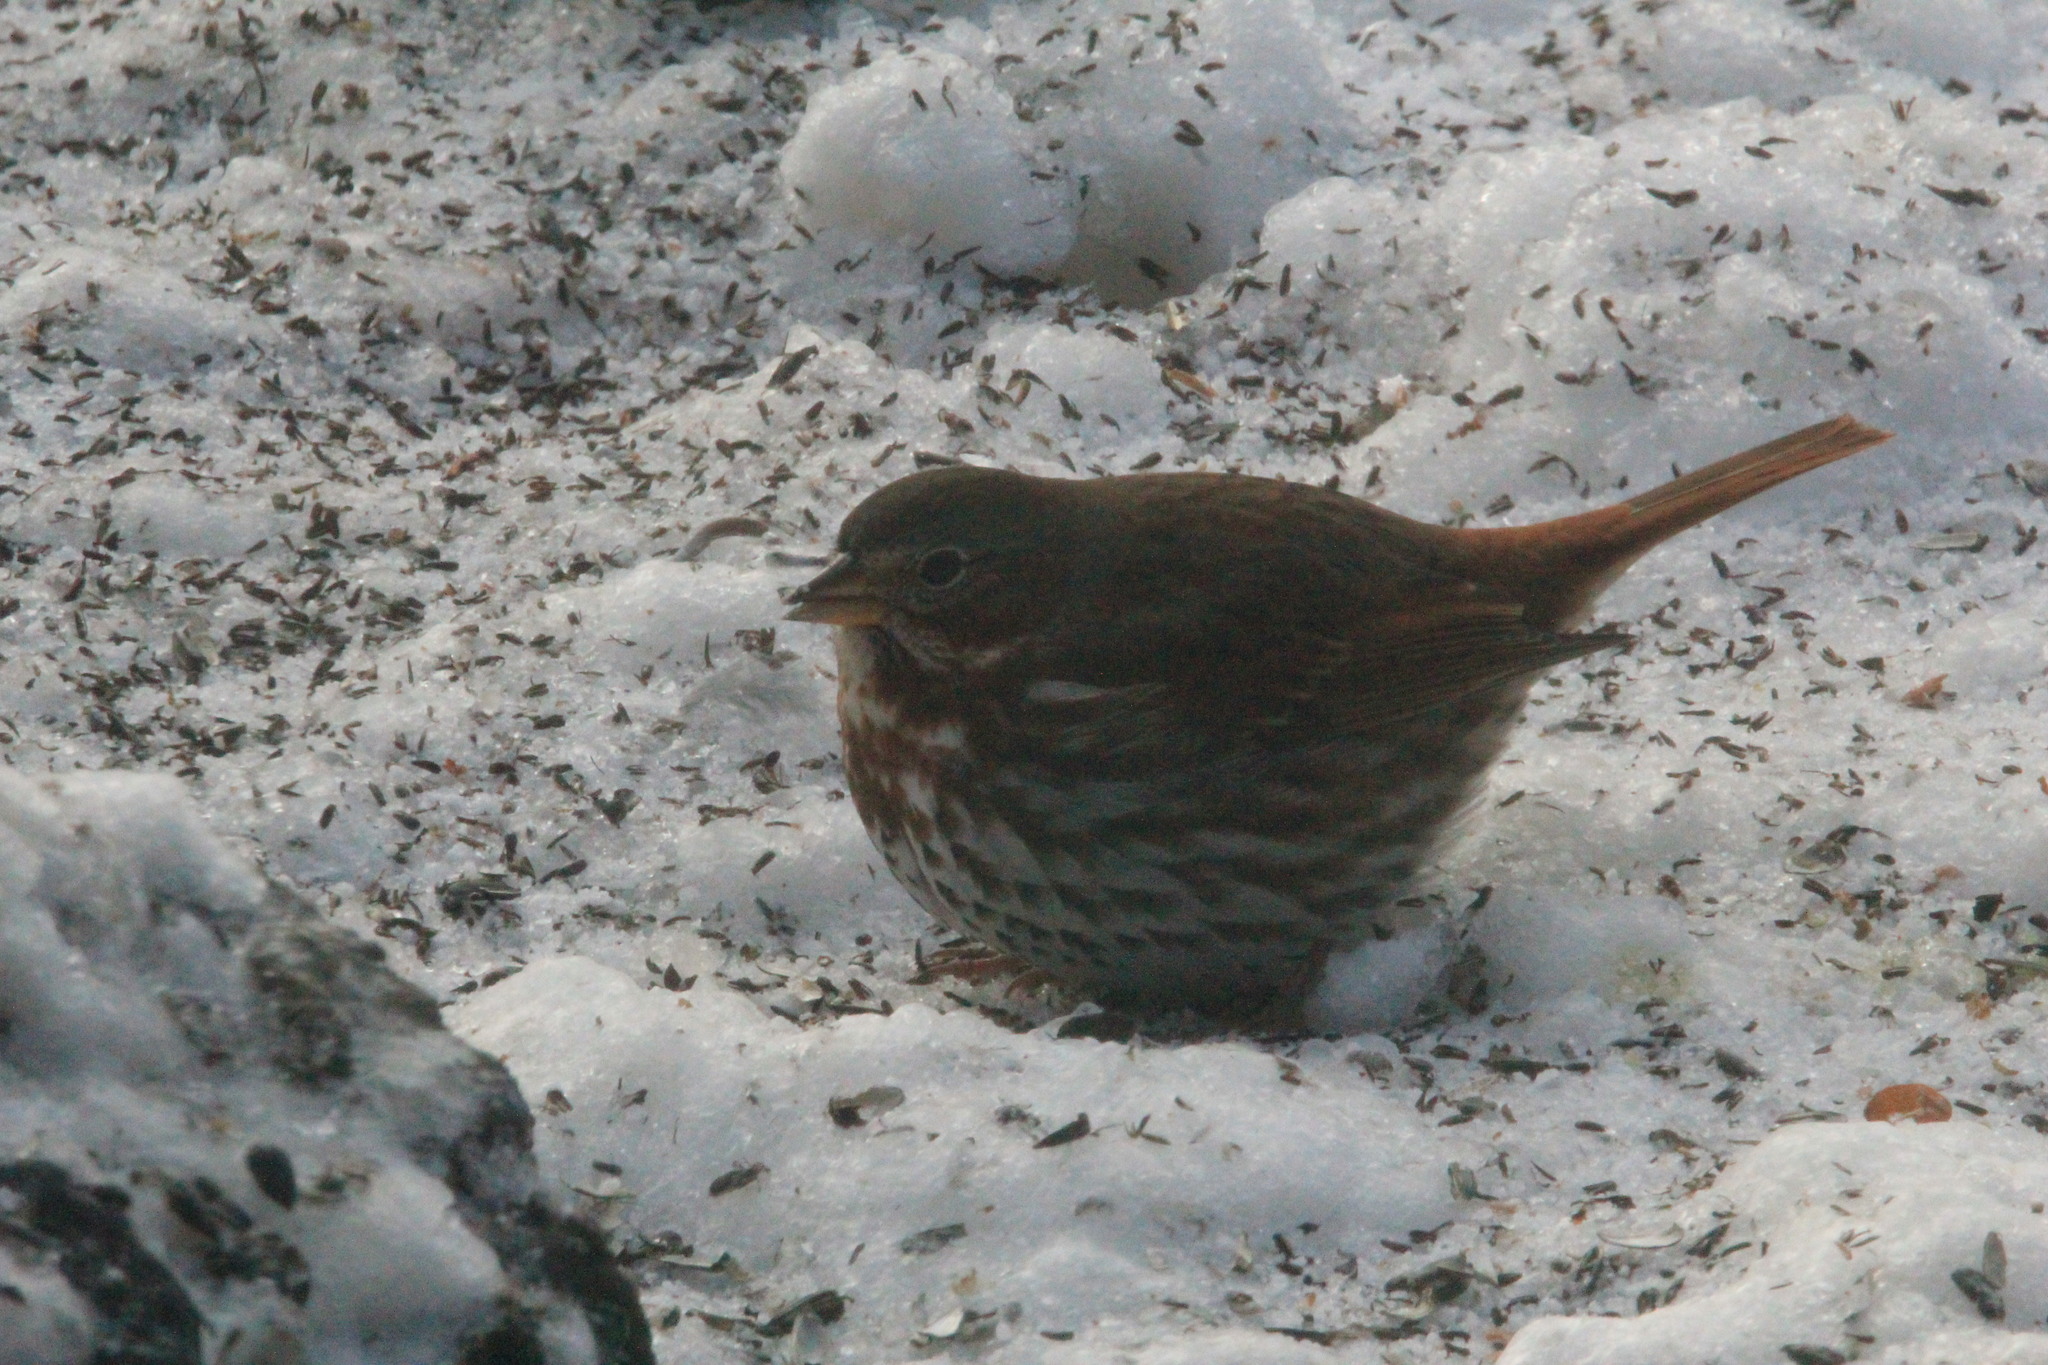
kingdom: Animalia
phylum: Chordata
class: Aves
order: Passeriformes
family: Passerellidae
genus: Passerella
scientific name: Passerella iliaca
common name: Fox sparrow
